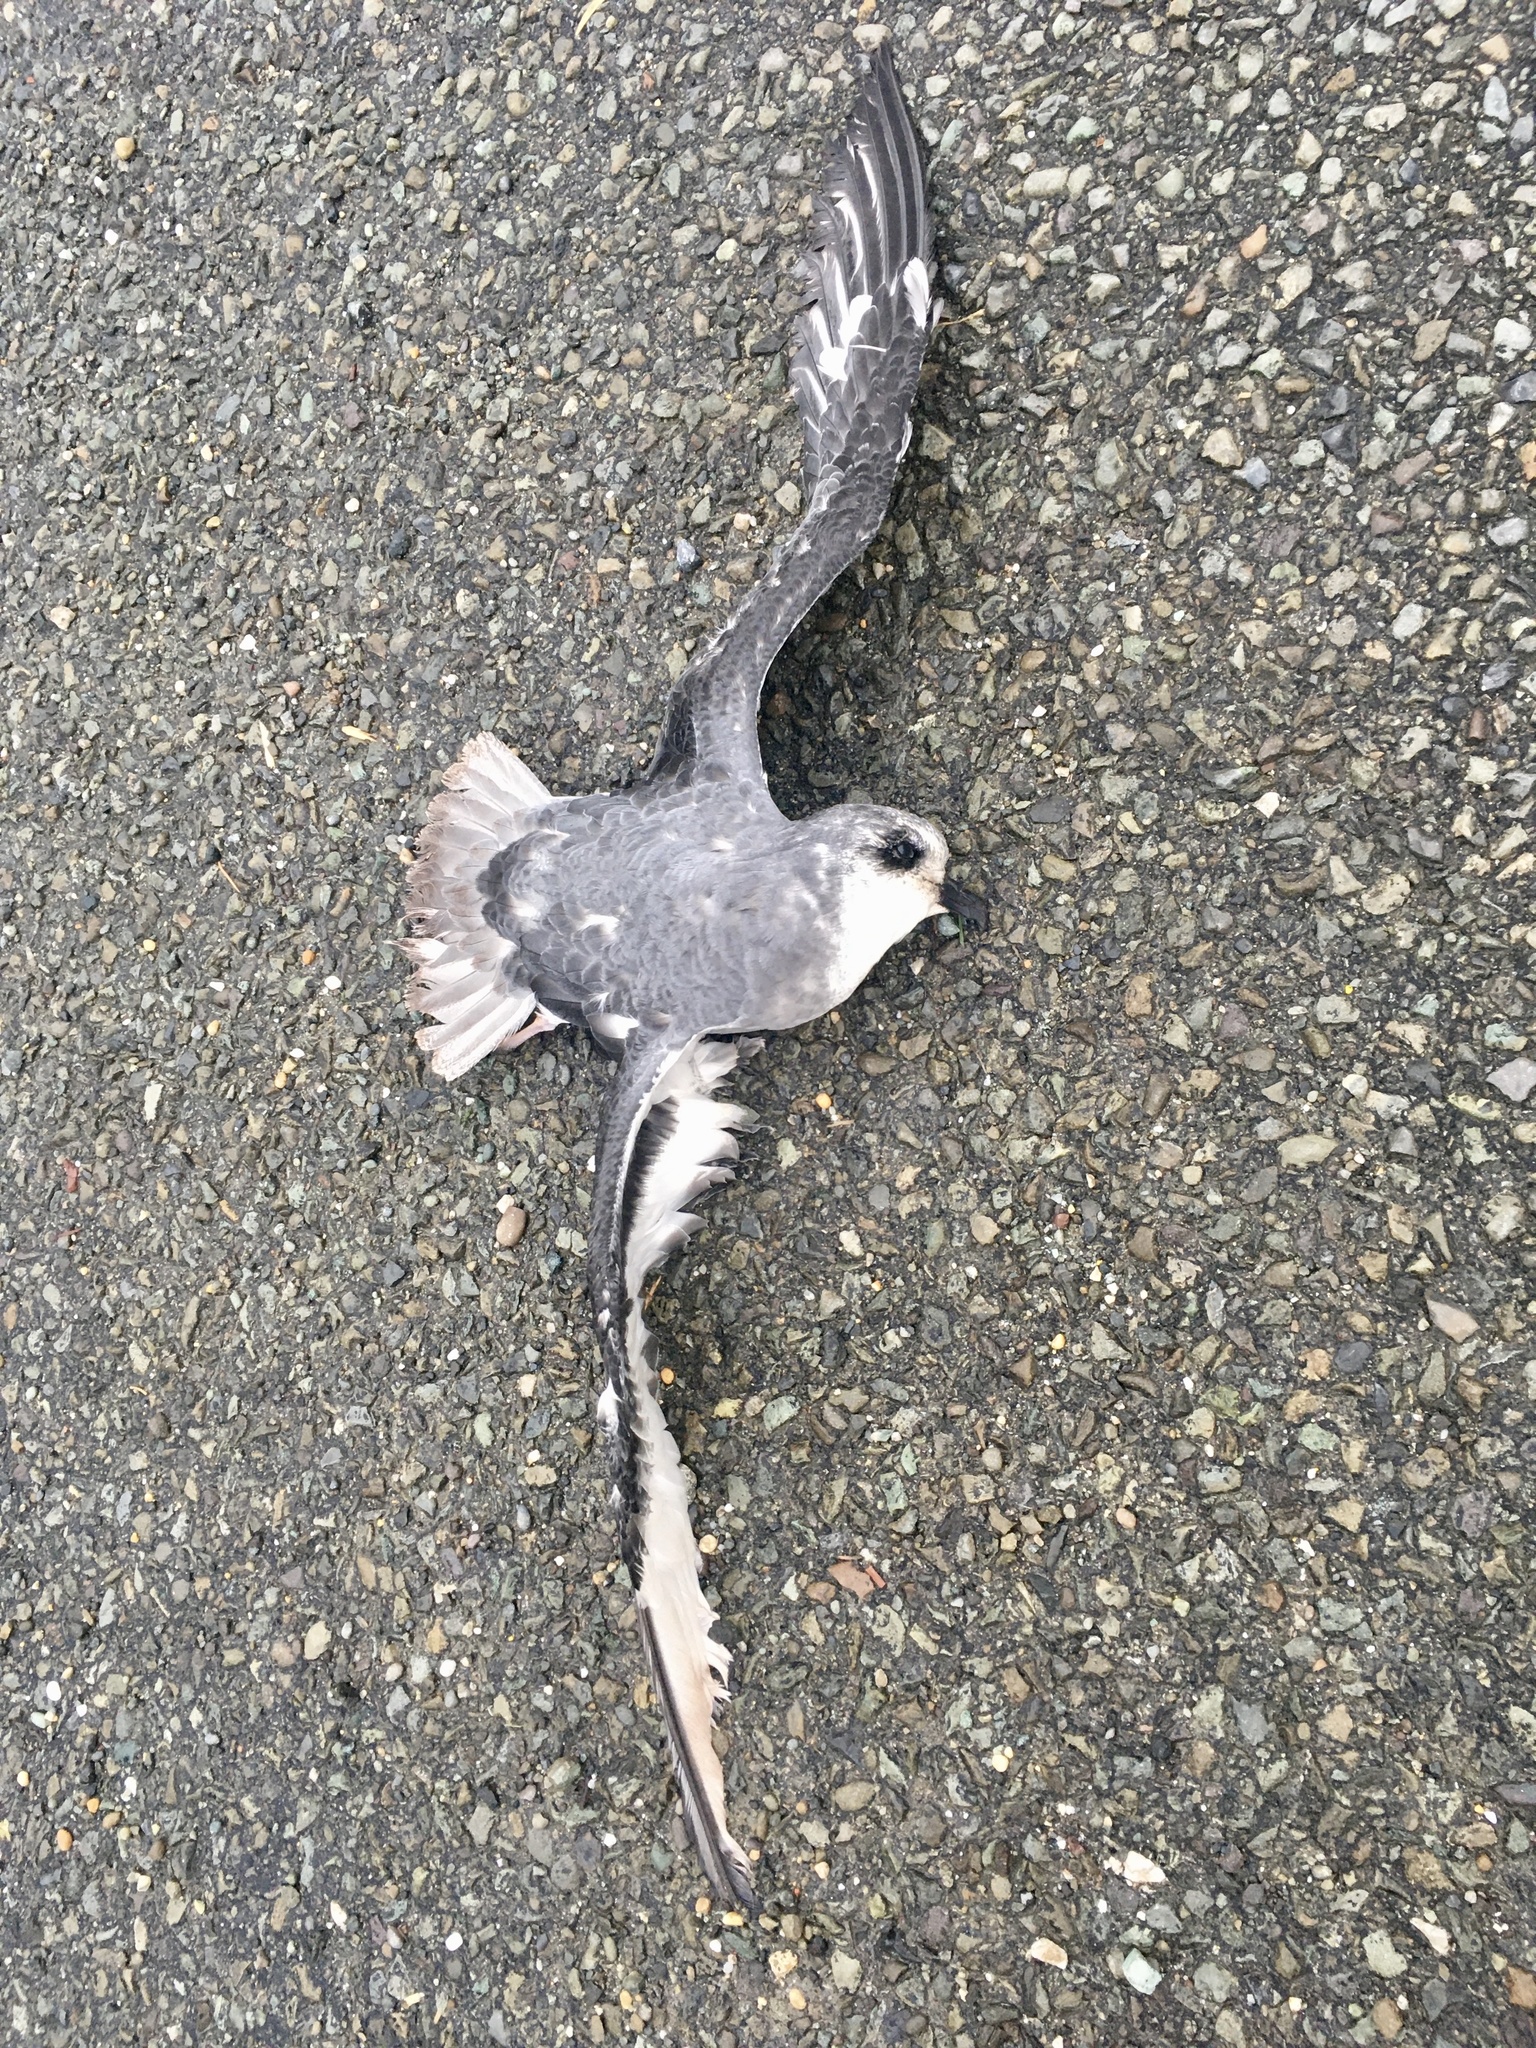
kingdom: Animalia
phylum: Chordata
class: Aves
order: Procellariiformes
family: Procellariidae
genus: Pterodroma
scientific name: Pterodroma inexpectata
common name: Mottled petrel
